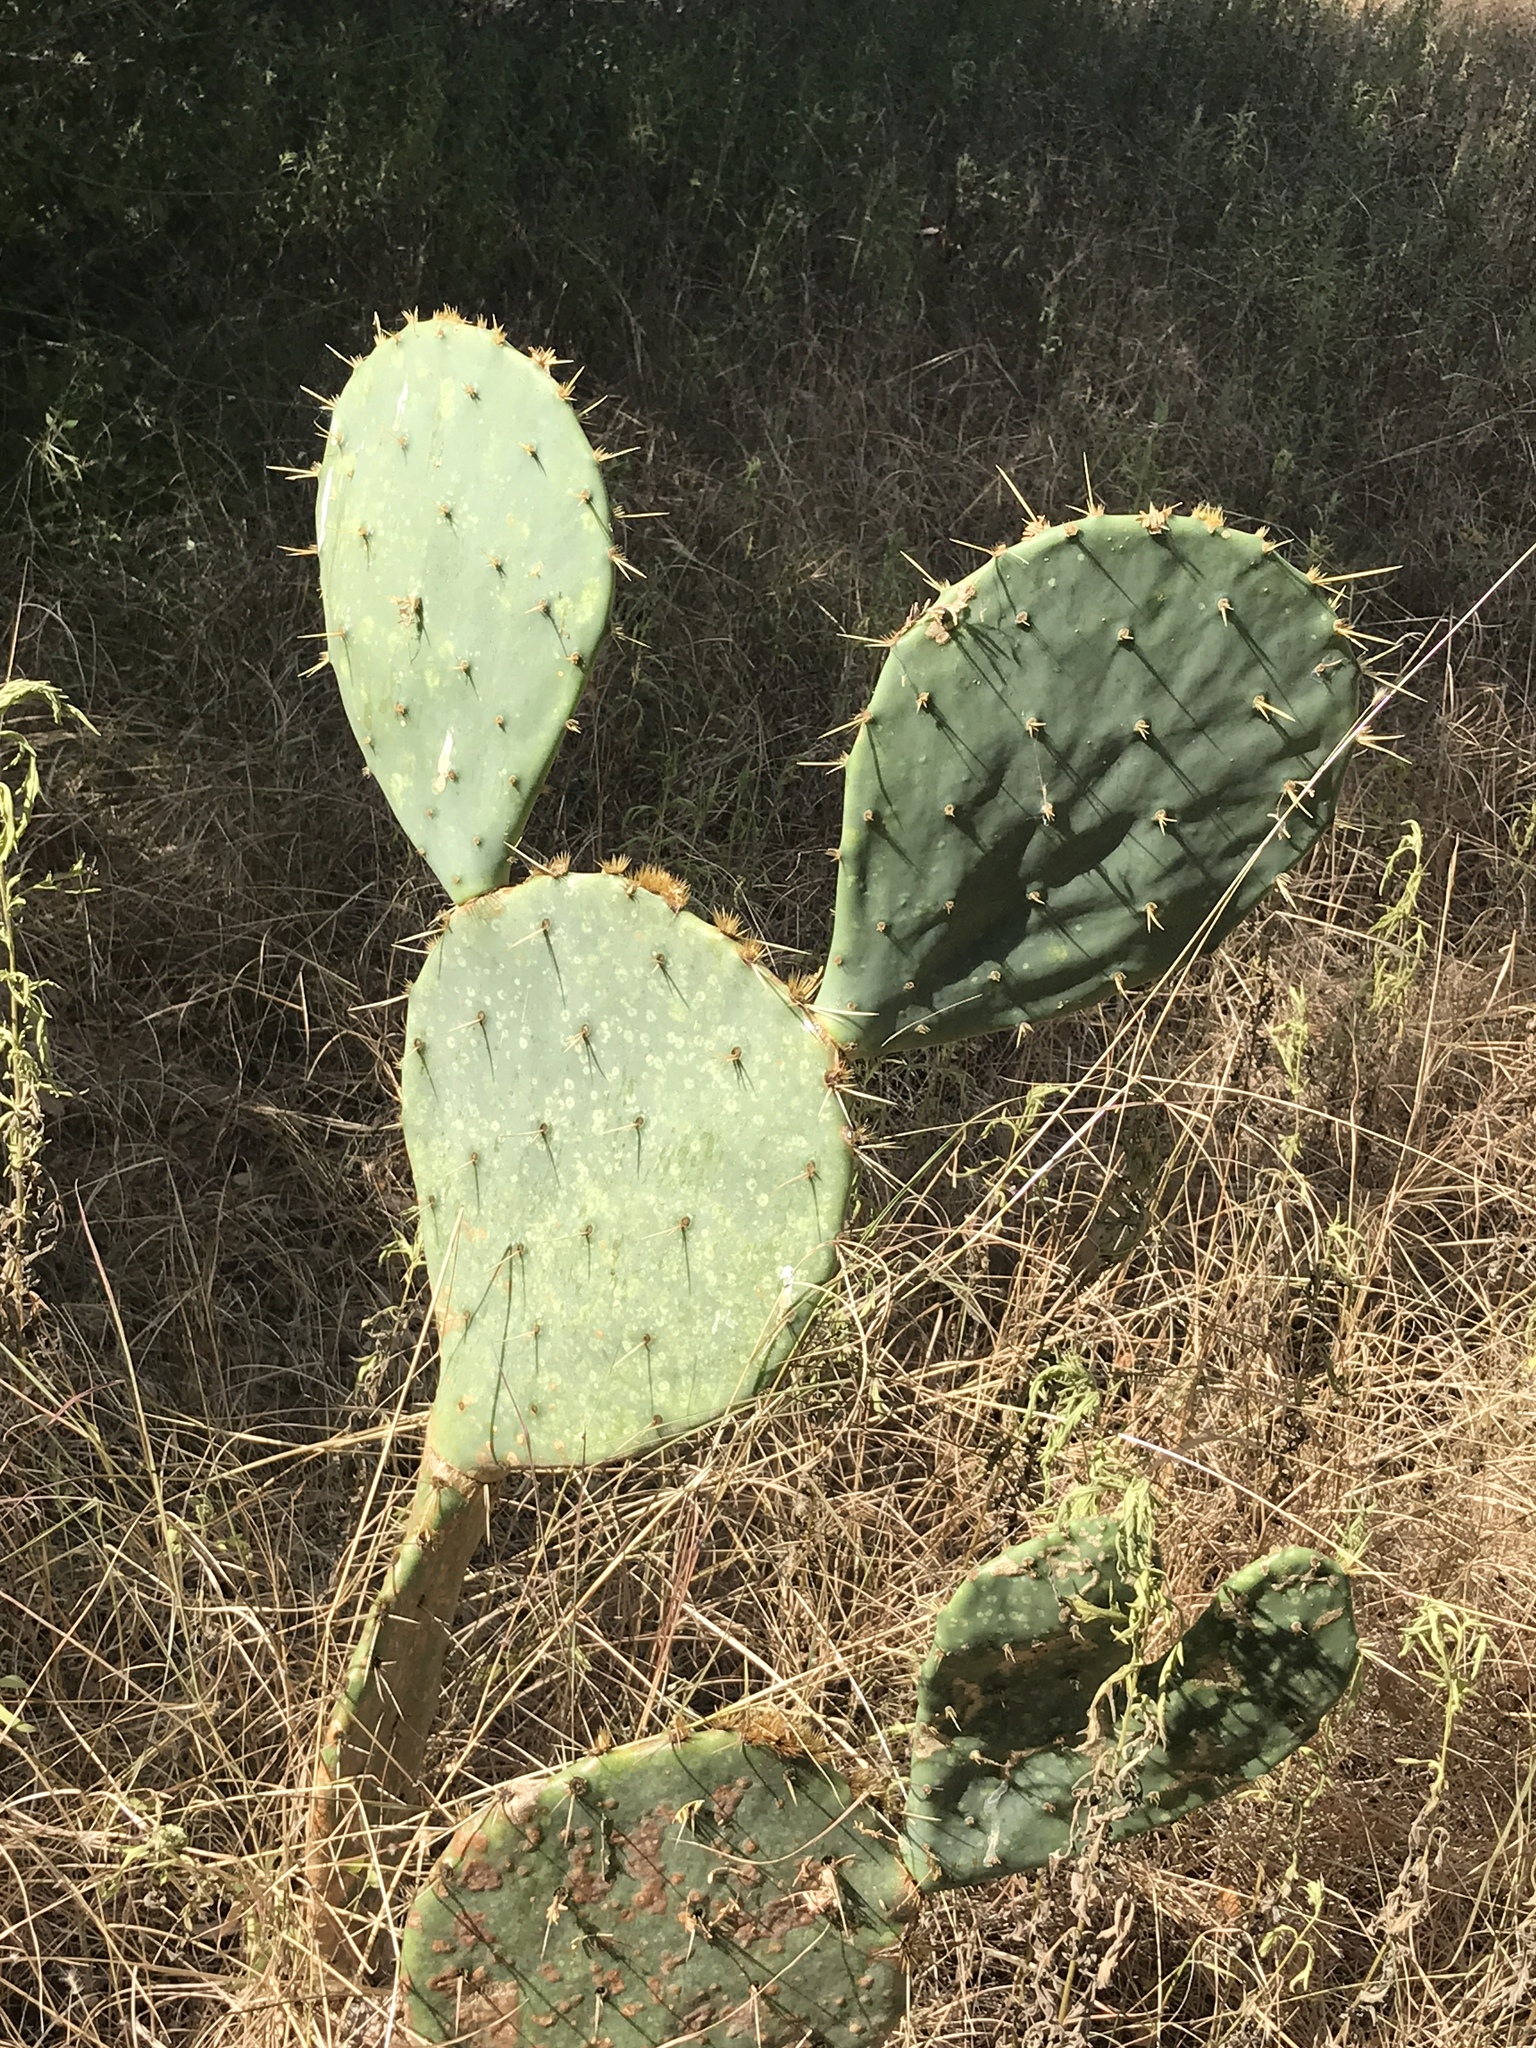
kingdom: Plantae
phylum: Tracheophyta
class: Magnoliopsida
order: Caryophyllales
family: Cactaceae
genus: Opuntia
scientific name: Opuntia engelmannii
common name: Cactus-apple
